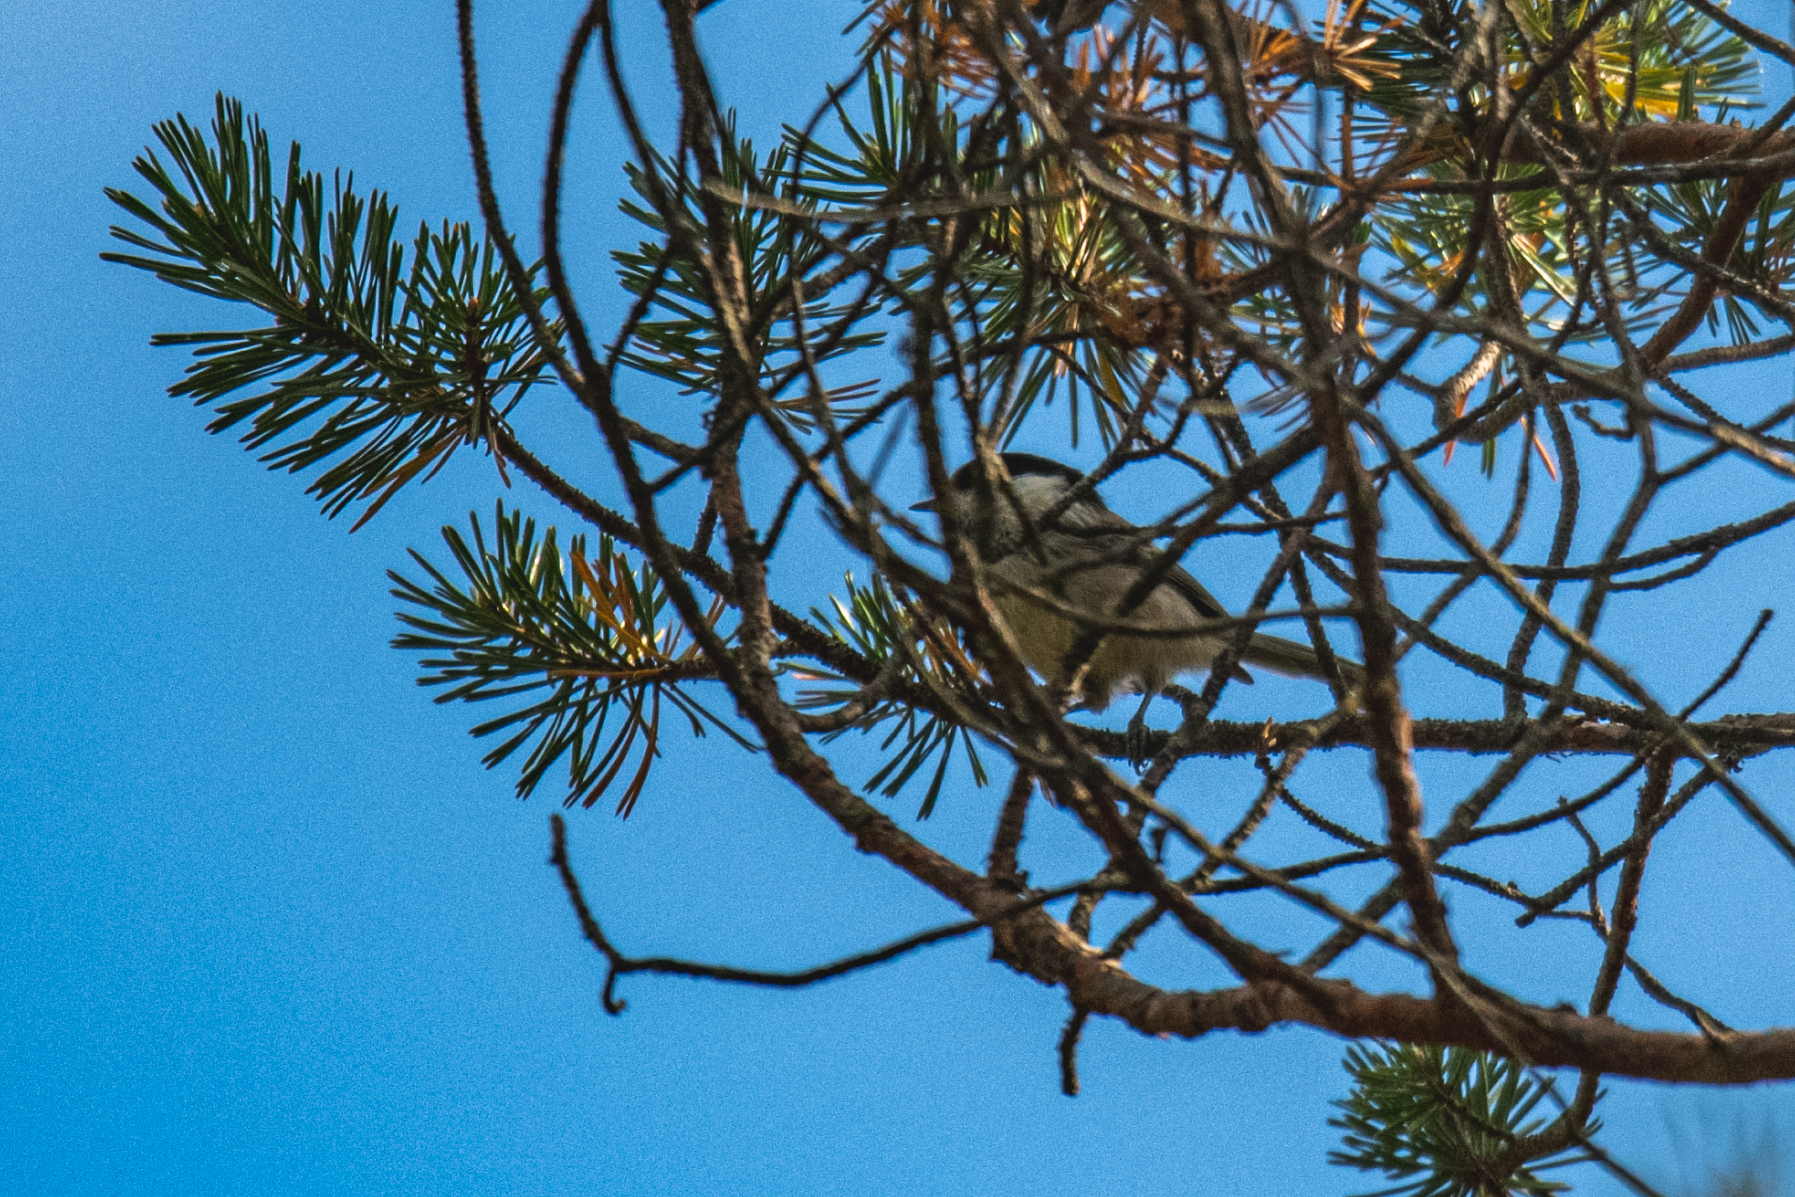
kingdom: Animalia
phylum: Chordata
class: Aves
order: Passeriformes
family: Paridae
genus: Poecile
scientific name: Poecile montanus
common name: Willow tit
